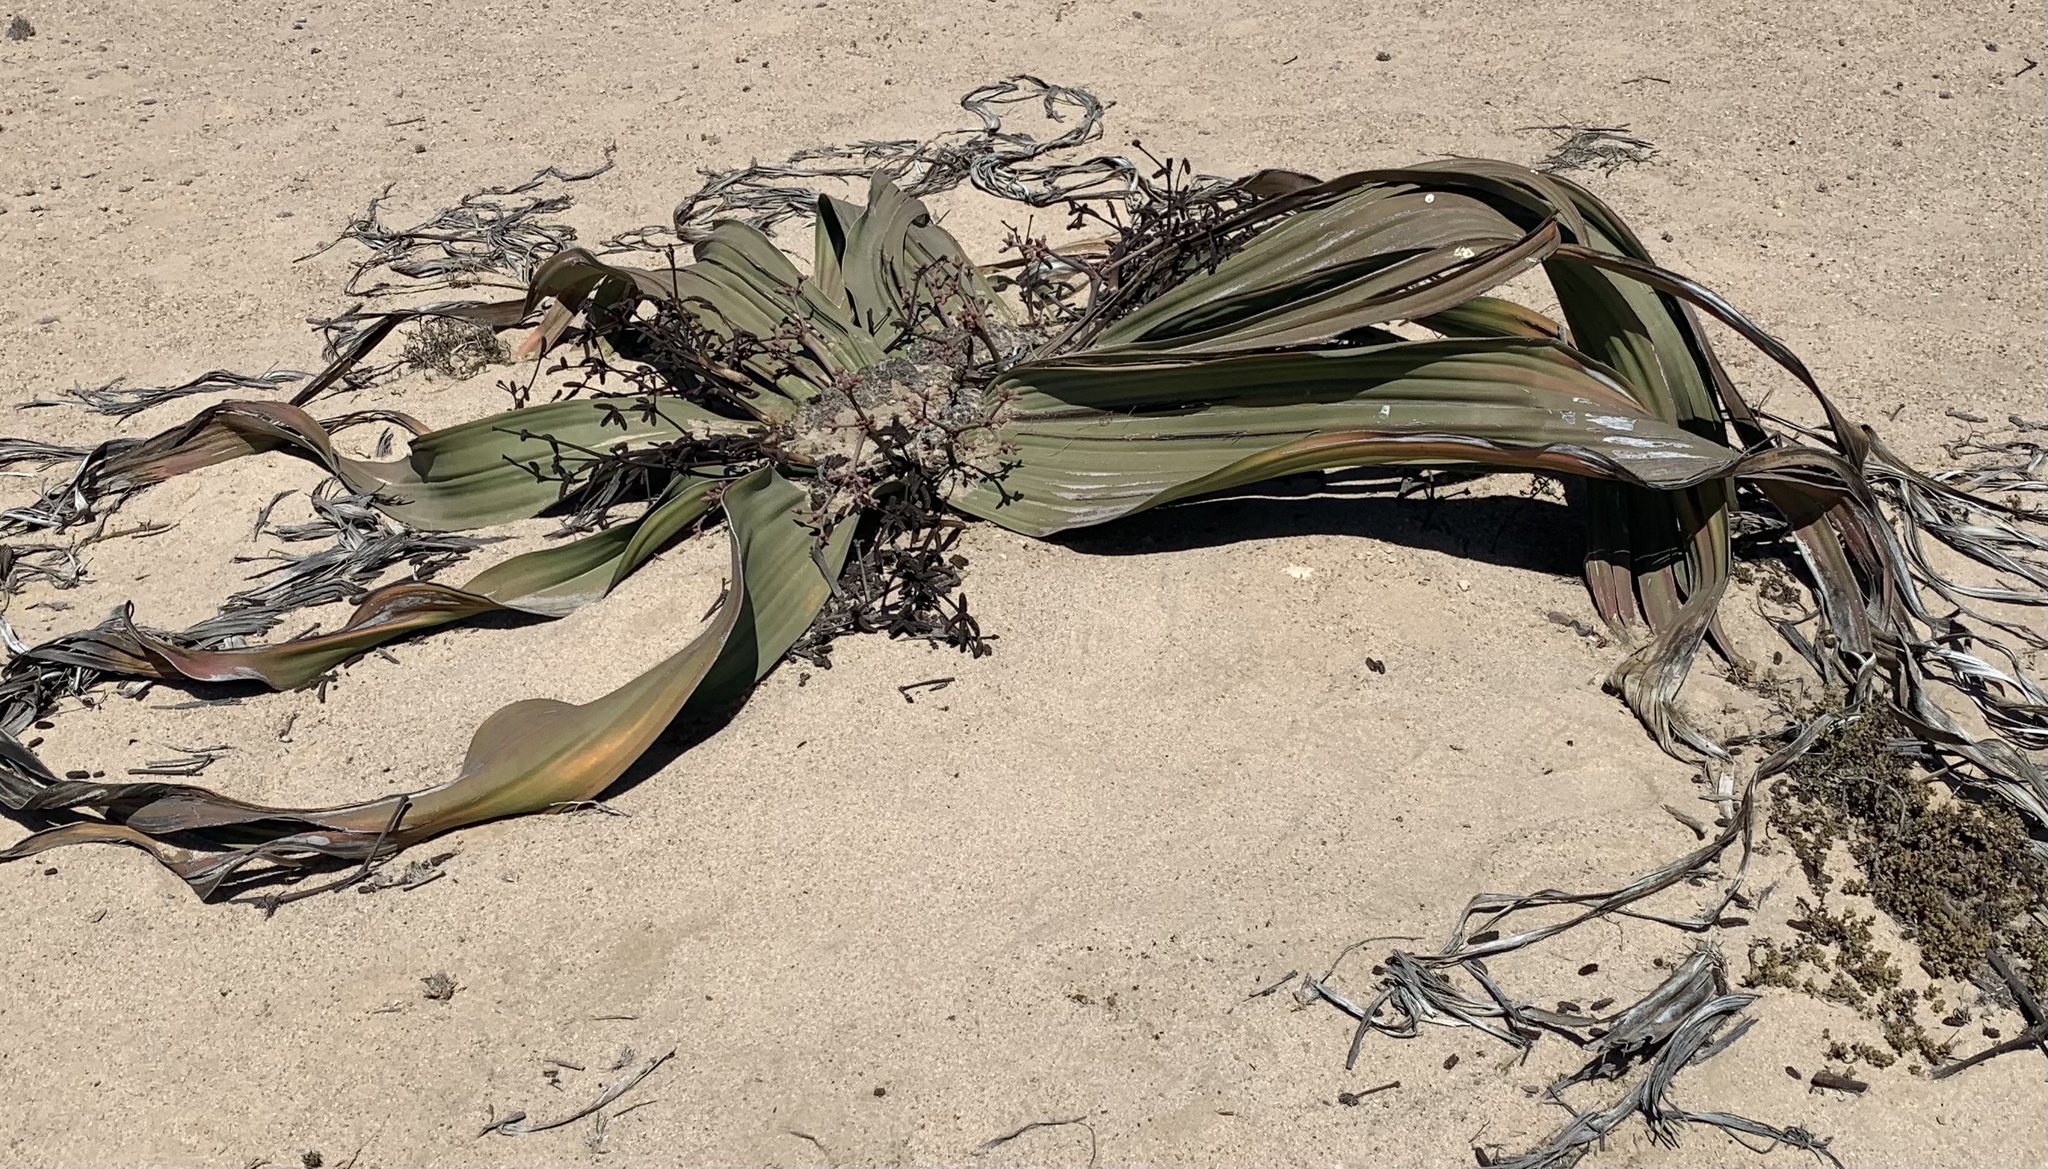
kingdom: Plantae
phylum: Tracheophyta
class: Gnetopsida
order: Welwitschiales
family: Welwitschiaceae
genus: Welwitschia
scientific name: Welwitschia mirabilis
